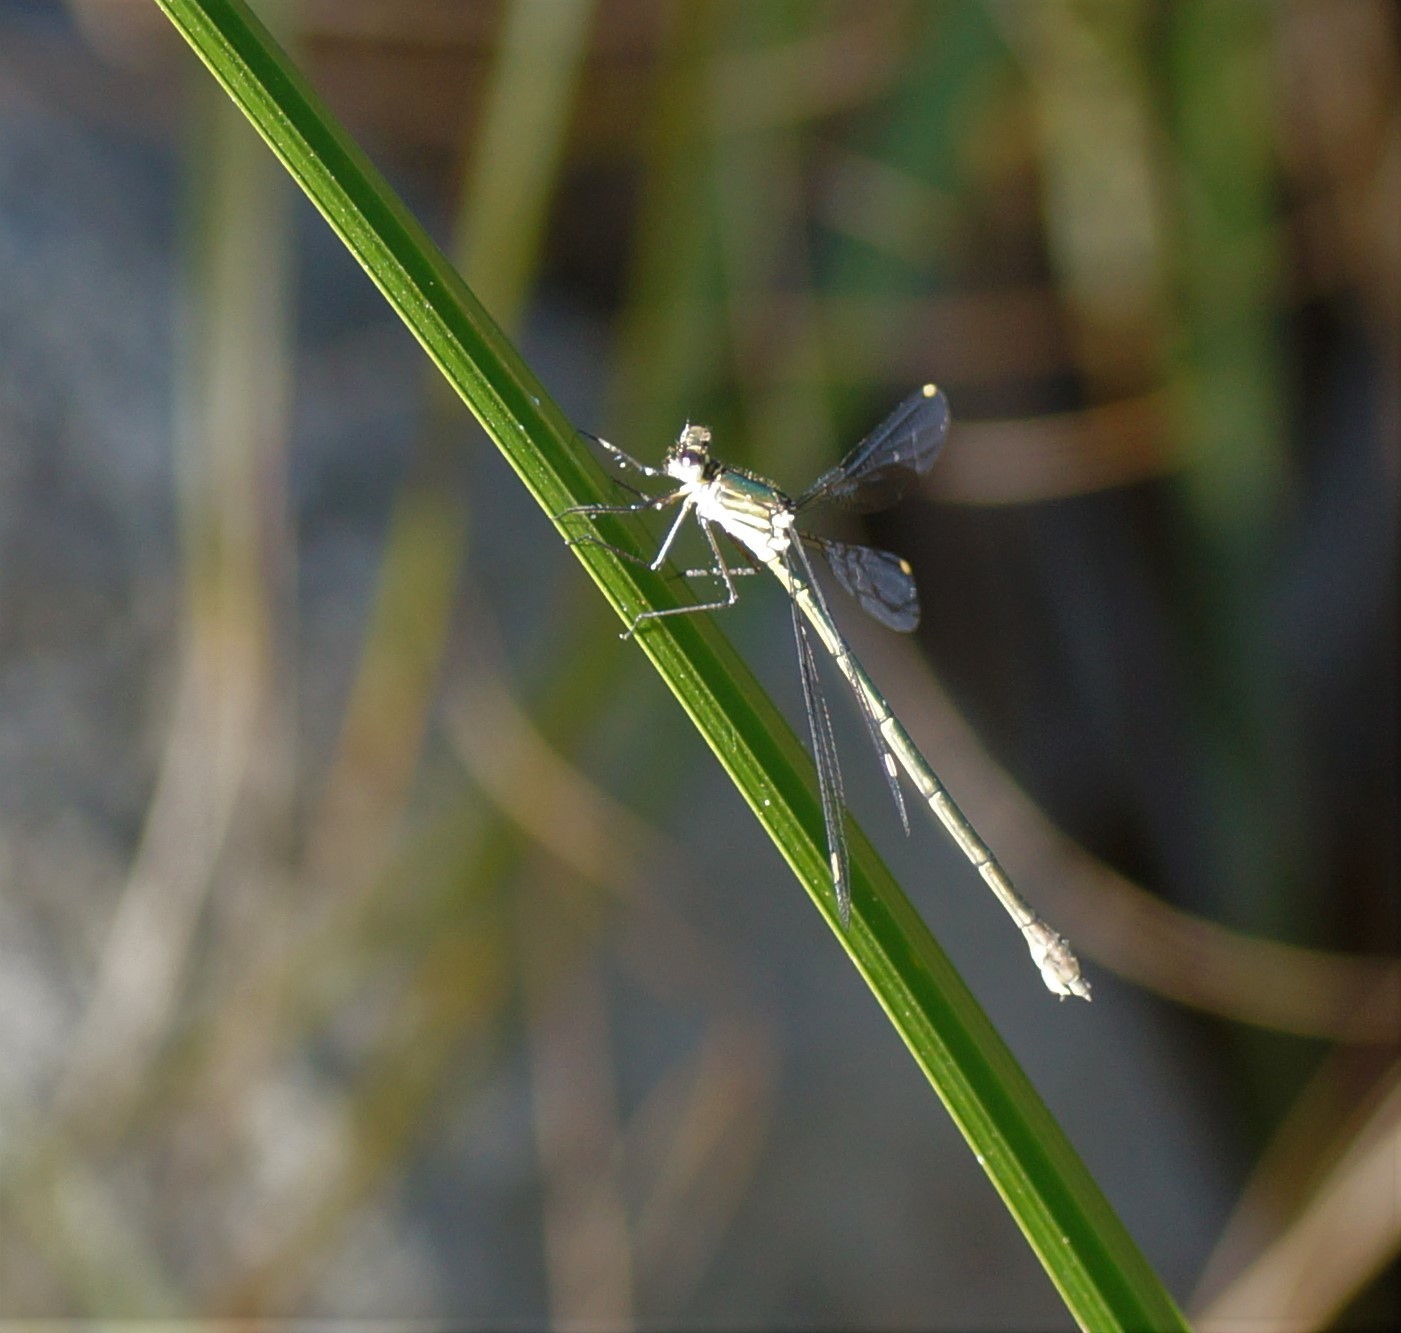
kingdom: Animalia
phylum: Arthropoda
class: Insecta
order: Odonata
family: Synlestidae
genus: Synlestes
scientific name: Synlestes weyersii
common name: Bronze needle
